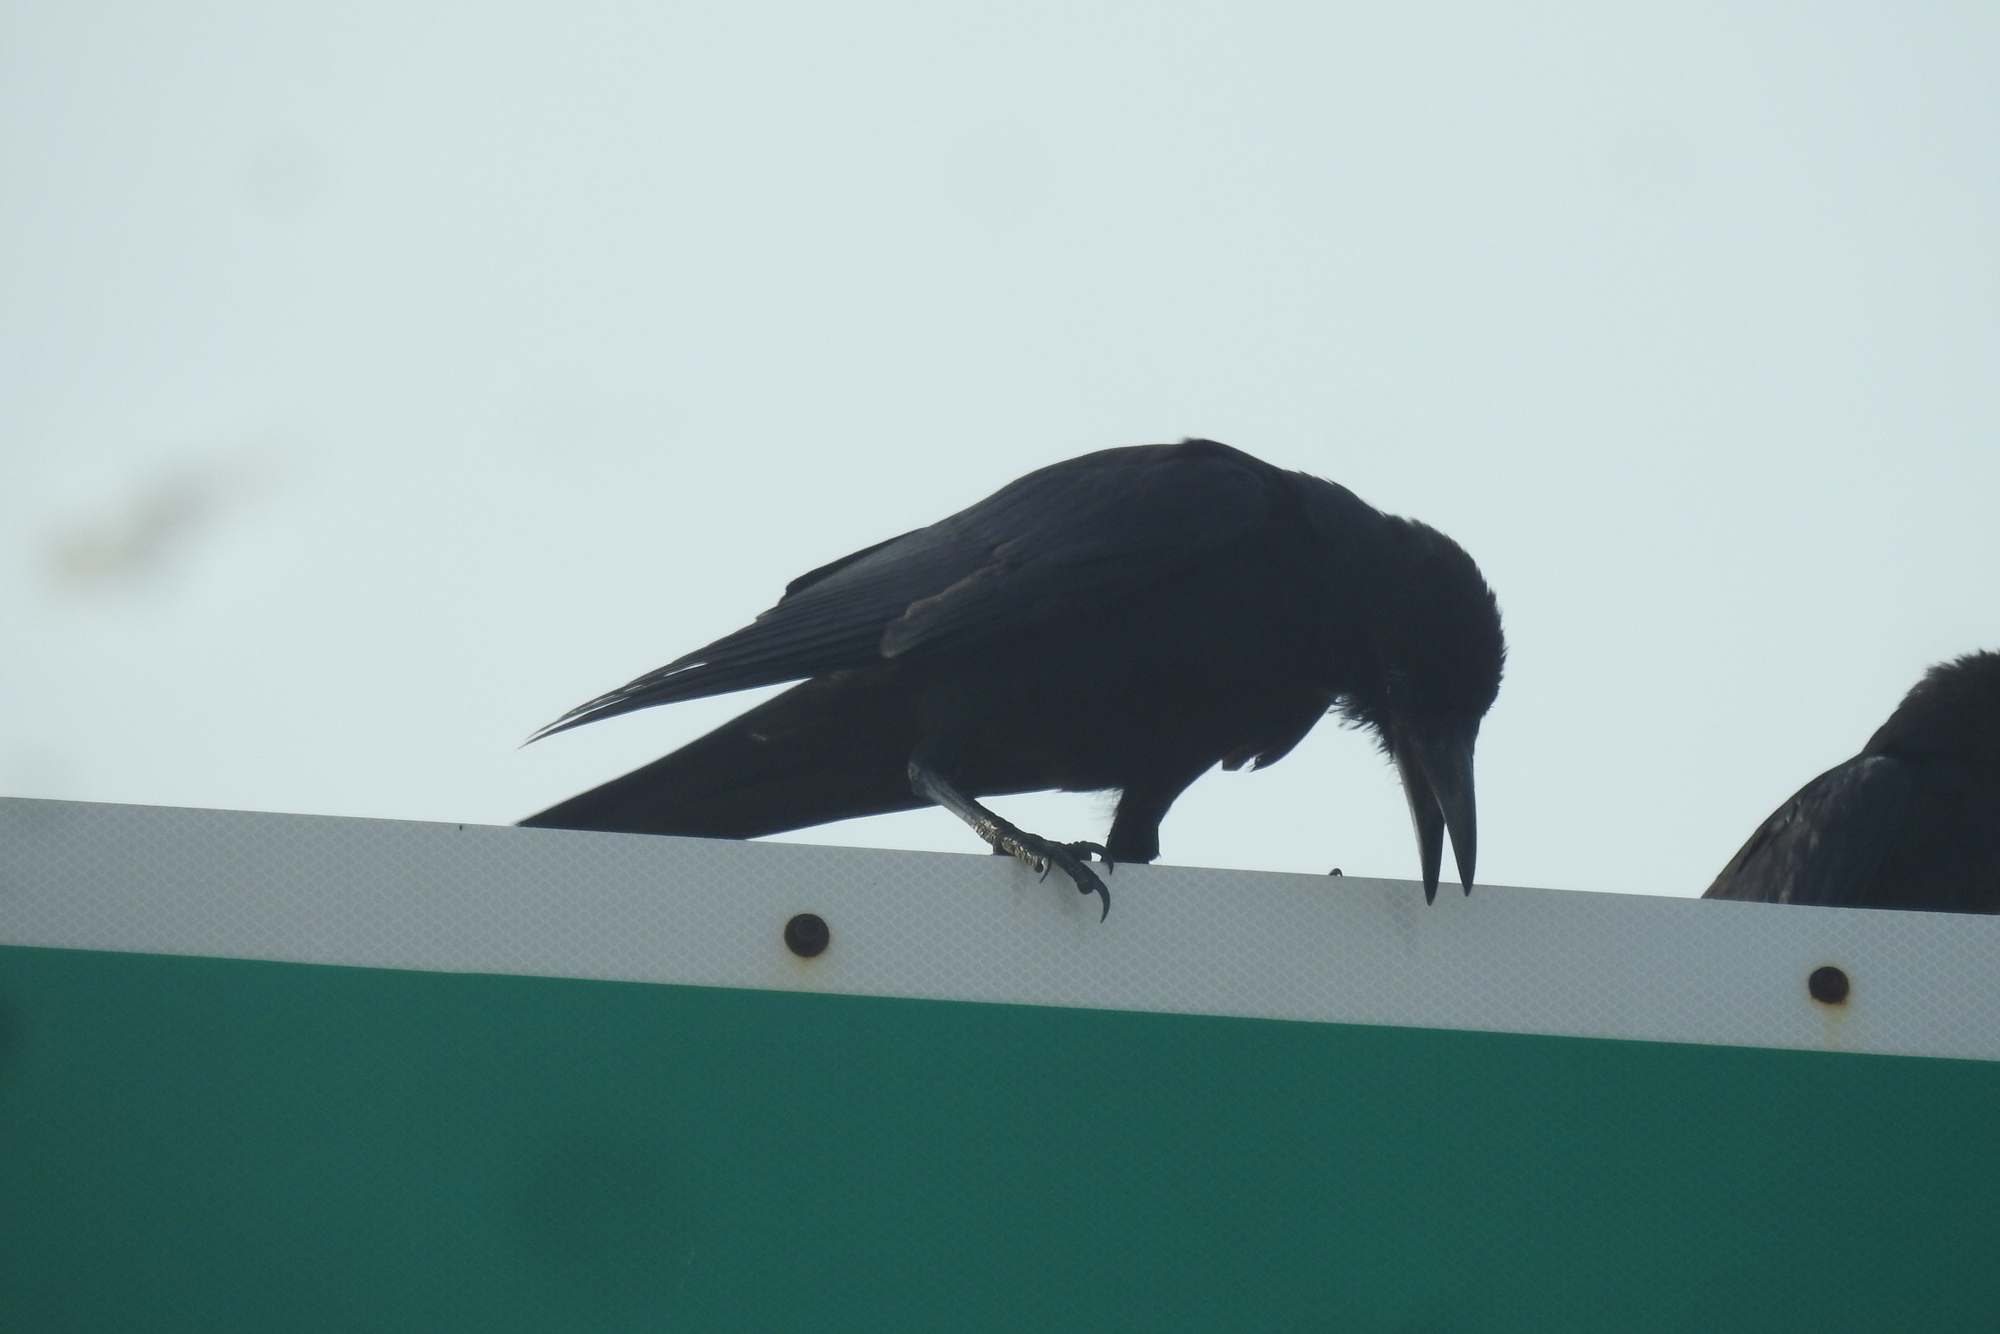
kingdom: Animalia
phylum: Chordata
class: Aves
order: Passeriformes
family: Corvidae
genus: Corvus
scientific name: Corvus macrorhynchos
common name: Large-billed crow
